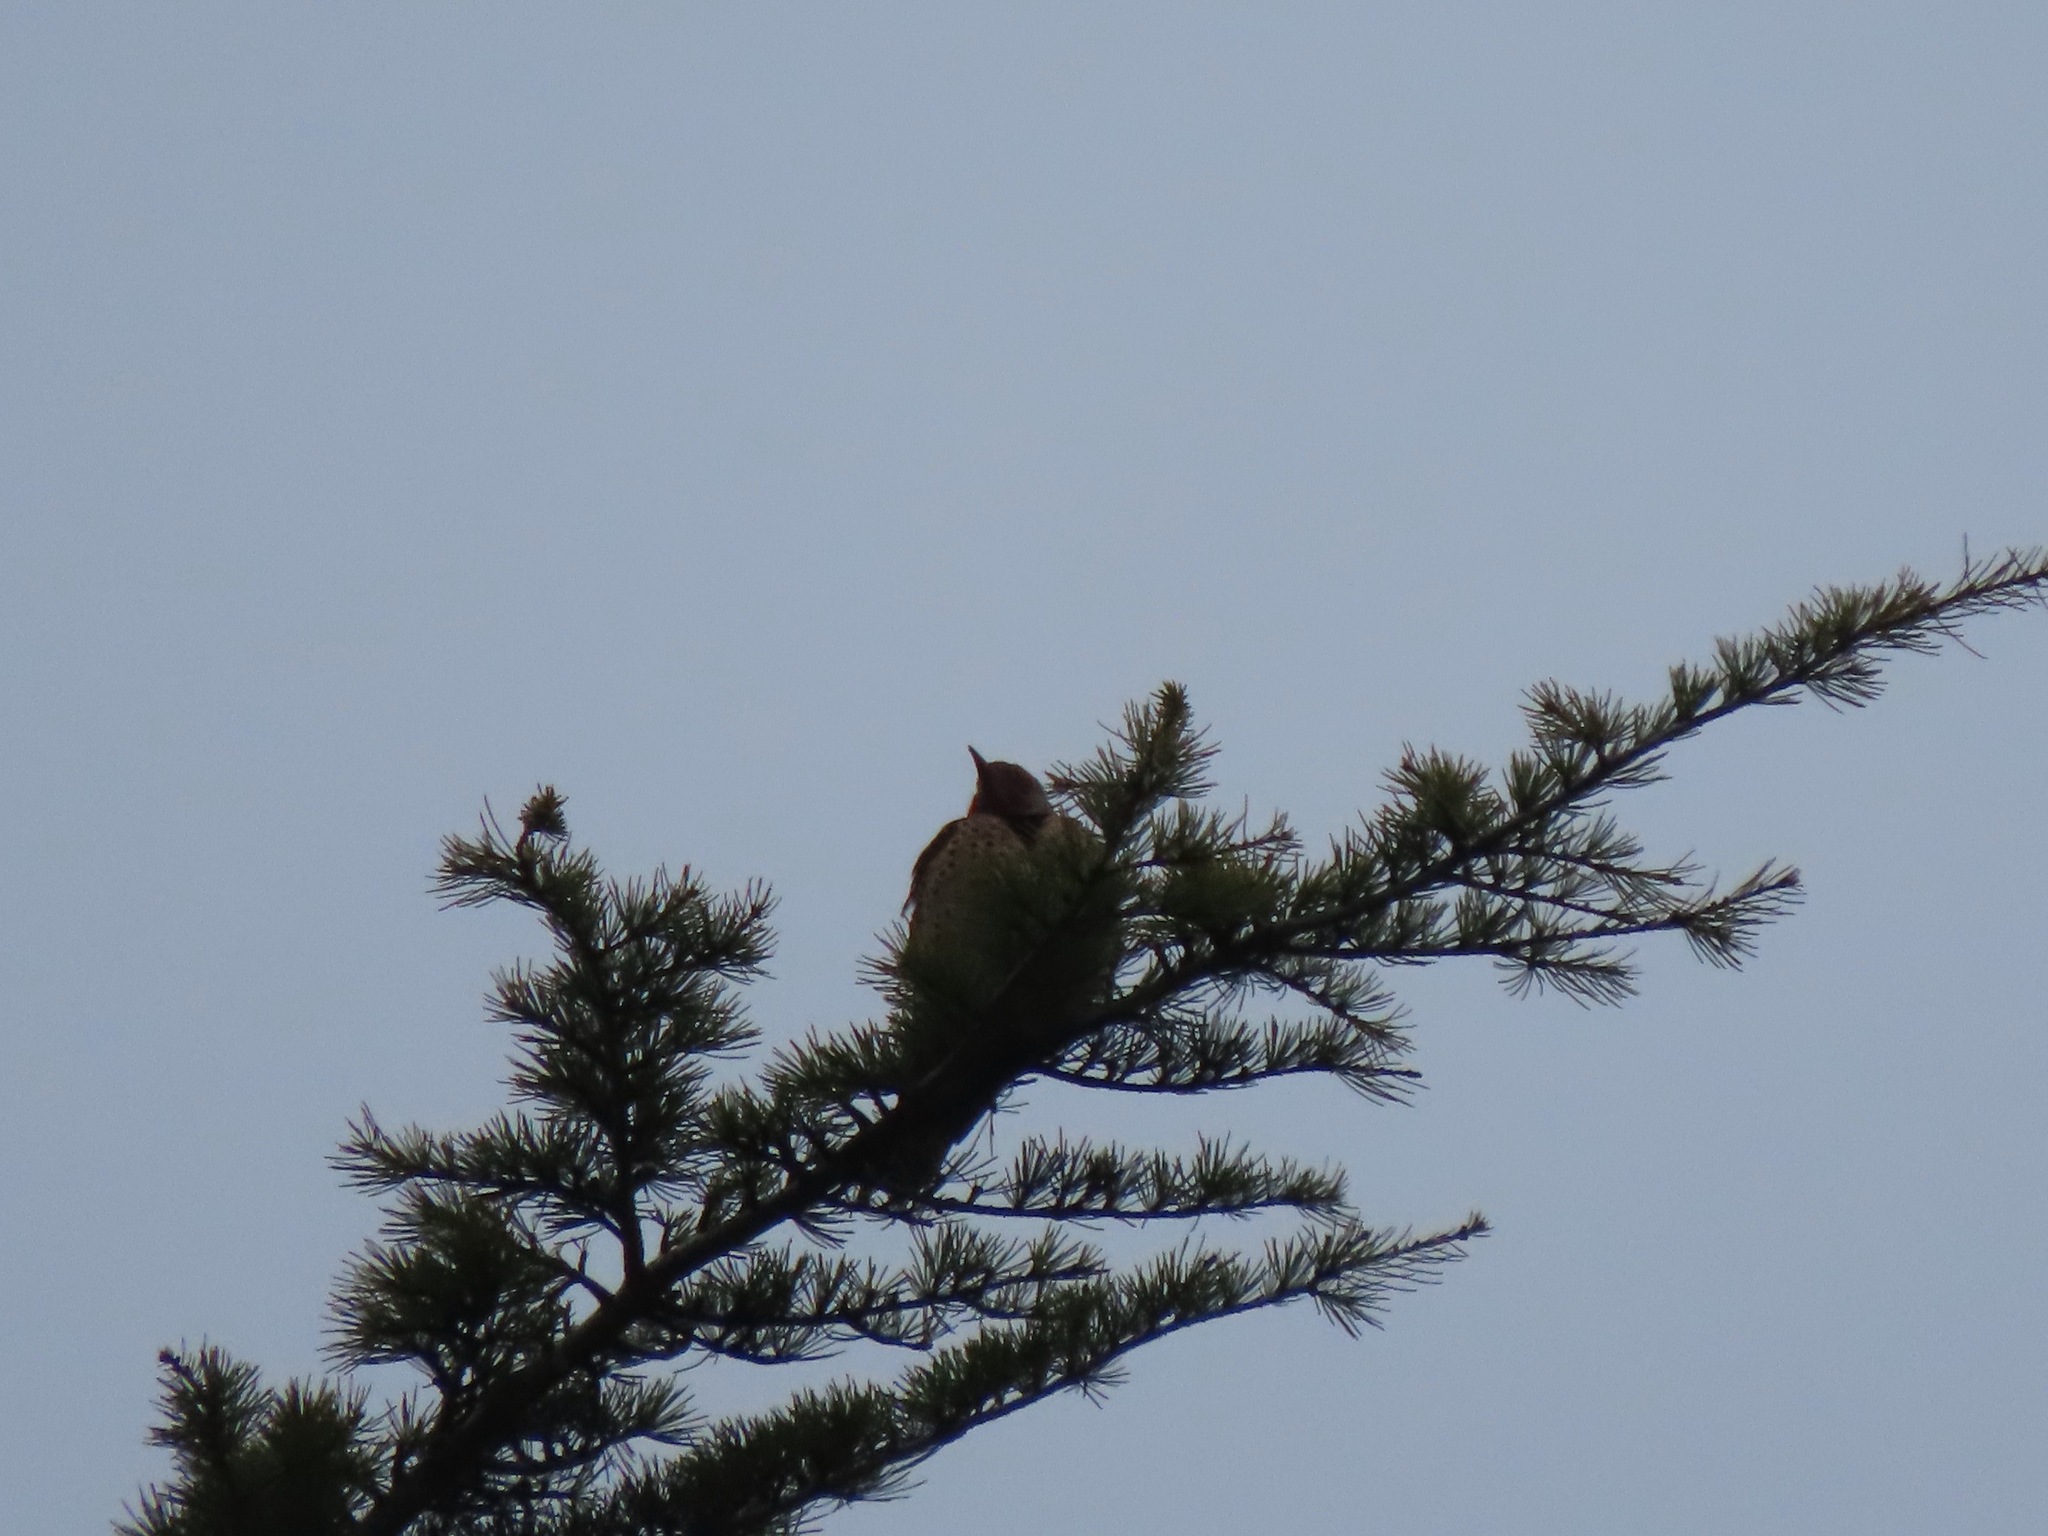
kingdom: Animalia
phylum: Chordata
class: Aves
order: Piciformes
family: Picidae
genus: Colaptes
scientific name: Colaptes auratus
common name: Northern flicker
